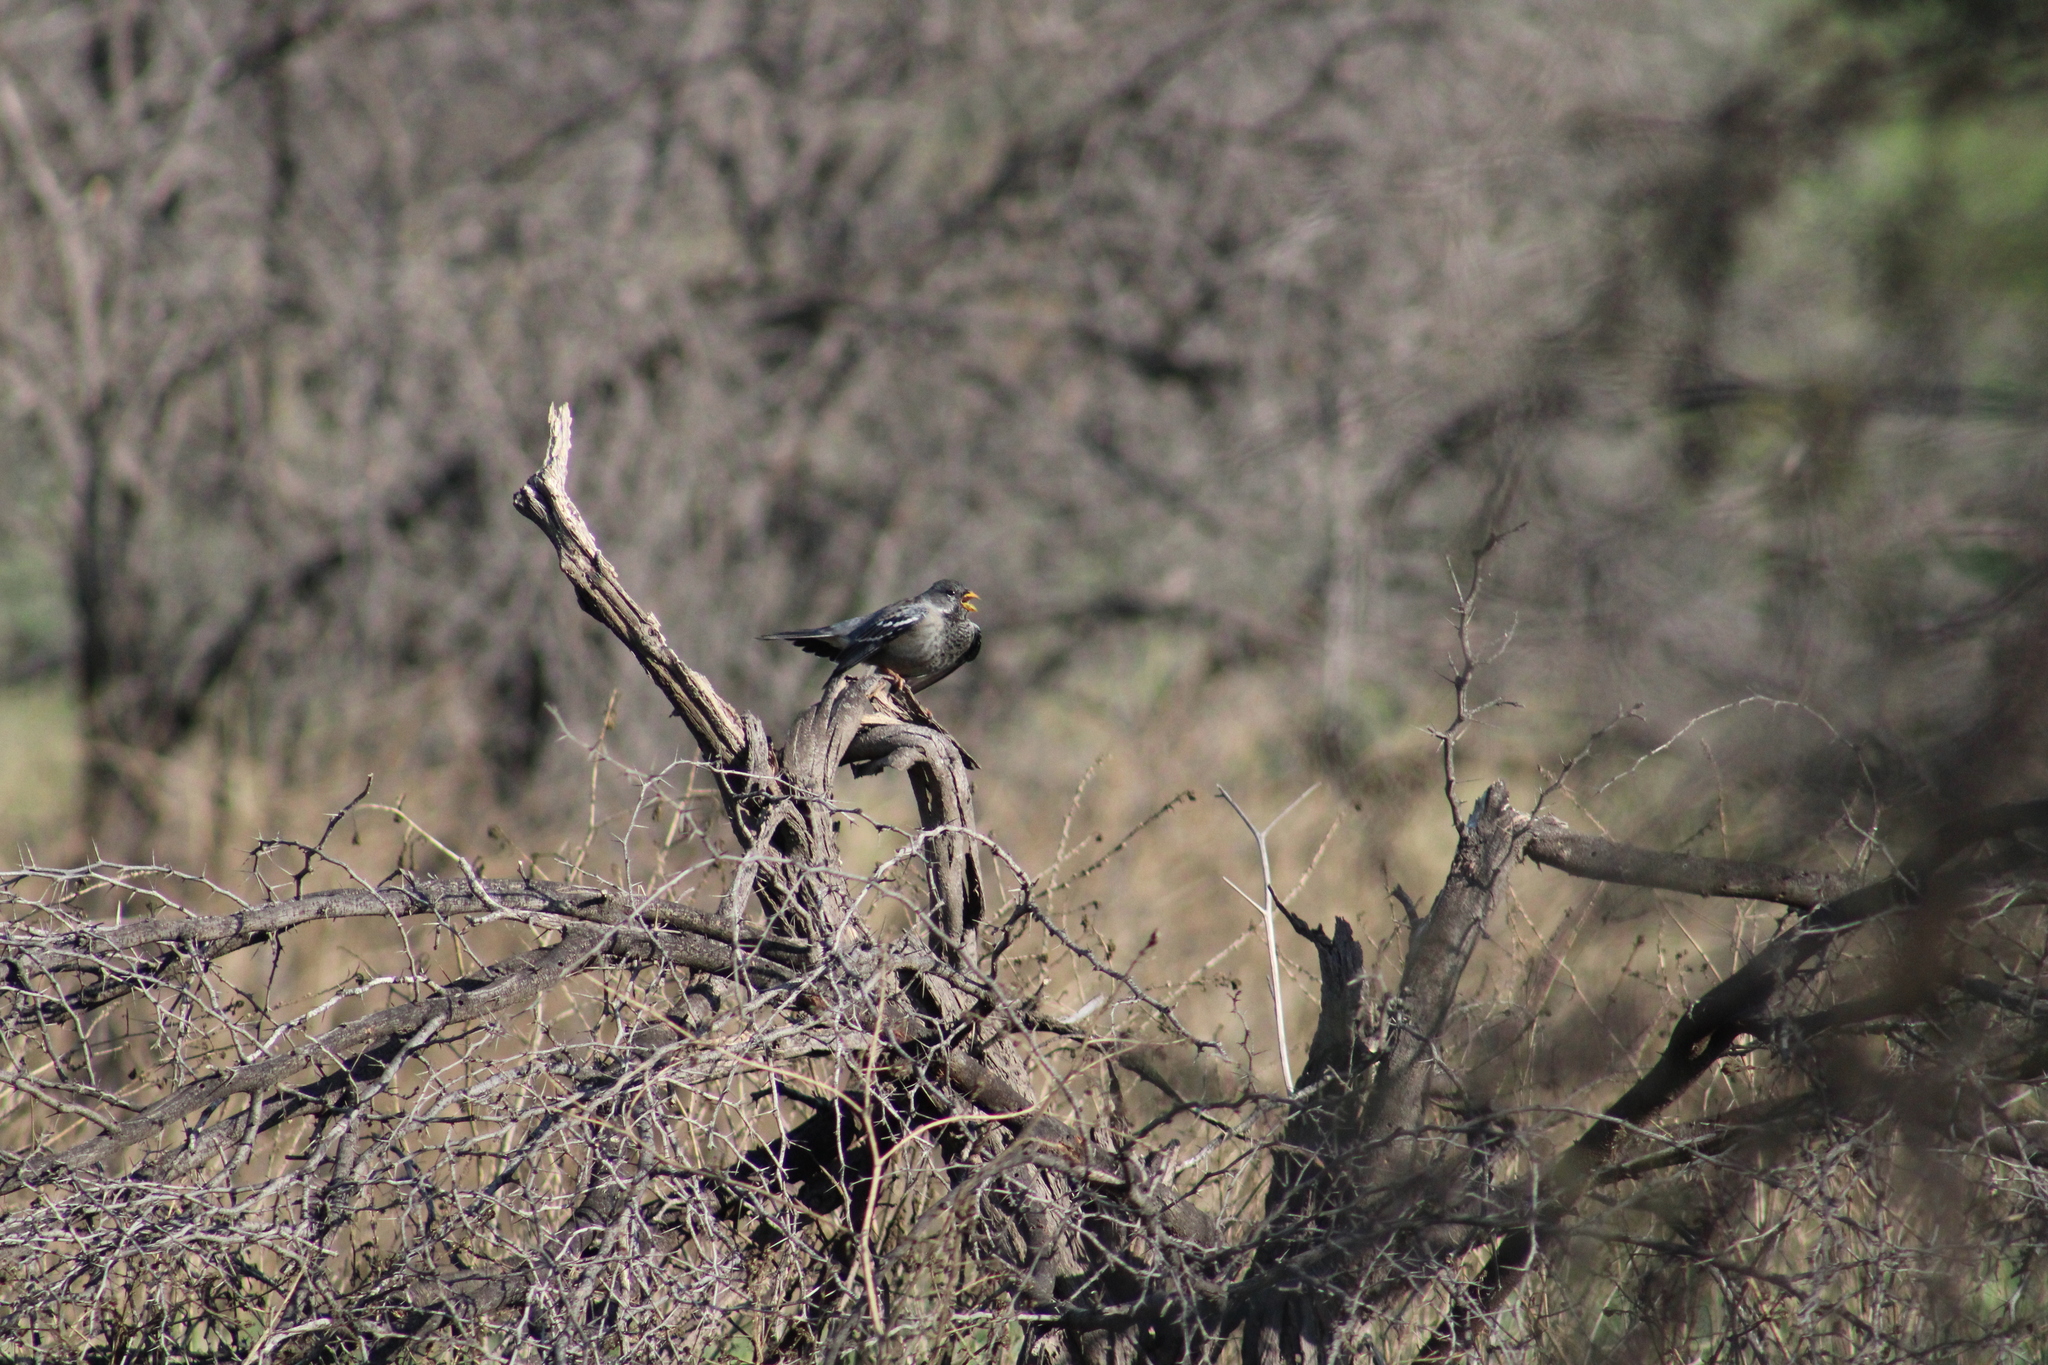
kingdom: Animalia
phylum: Chordata
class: Aves
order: Passeriformes
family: Thraupidae
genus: Rhopospina
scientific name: Rhopospina fruticeti
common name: Mourning sierra finch
